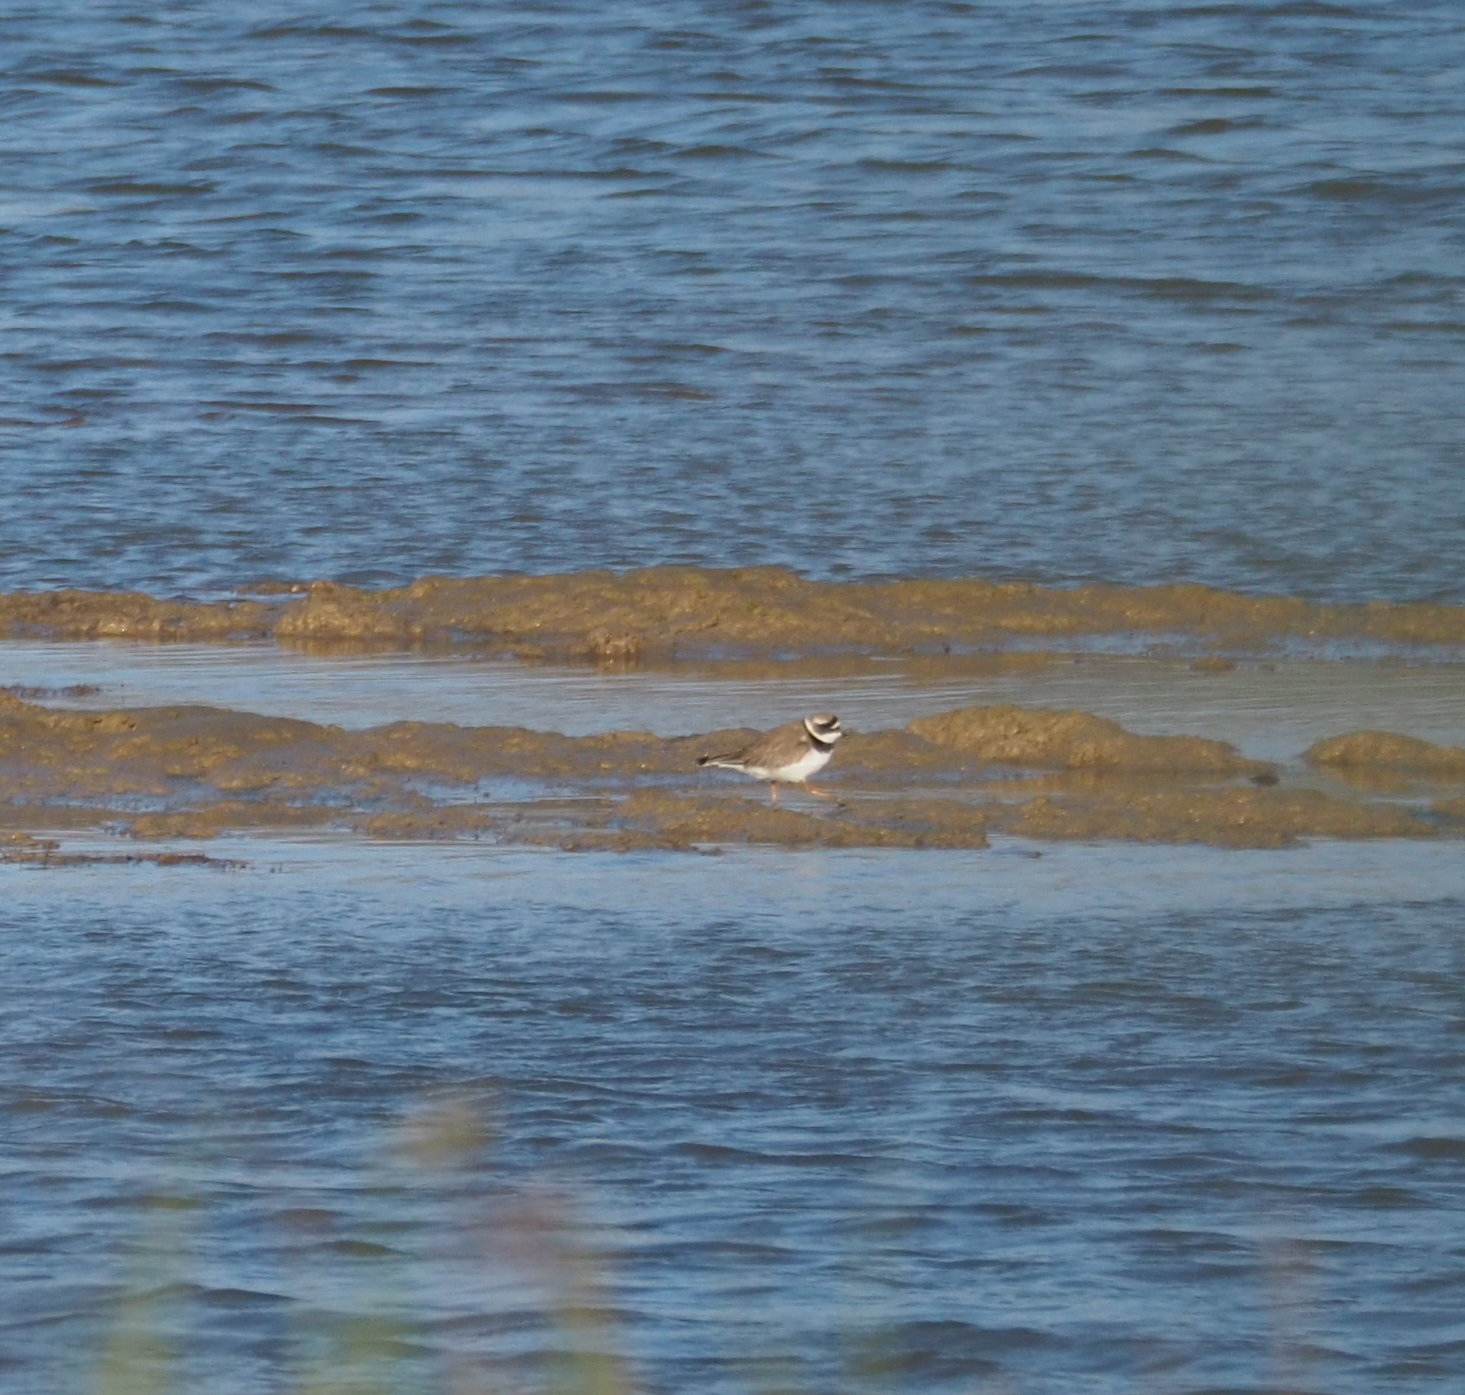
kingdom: Animalia
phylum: Chordata
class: Aves
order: Charadriiformes
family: Charadriidae
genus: Charadrius
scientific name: Charadrius hiaticula
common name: Common ringed plover
